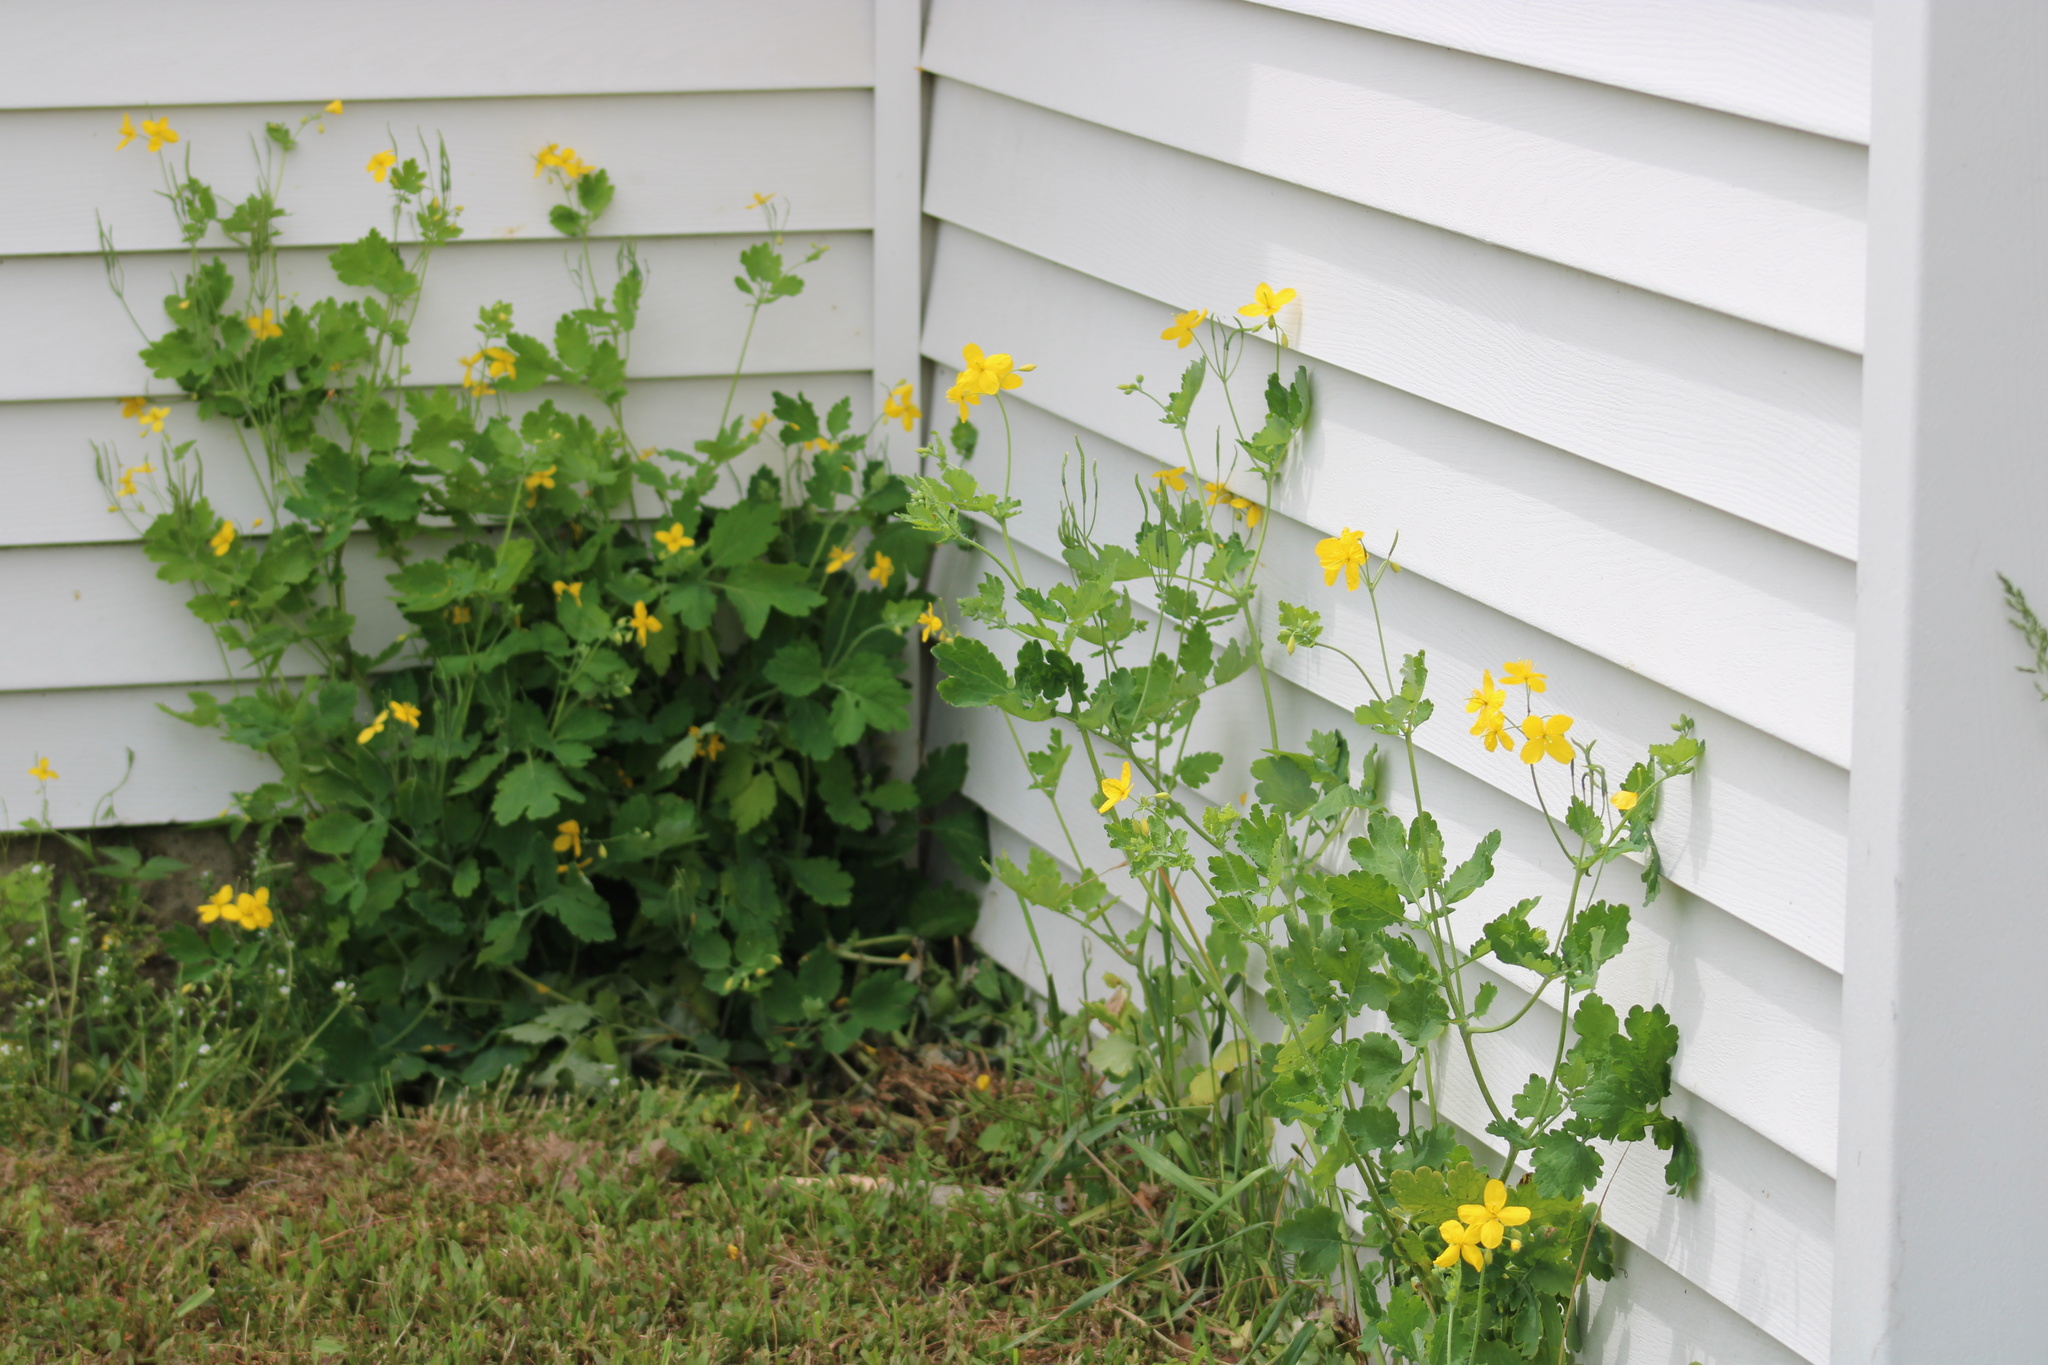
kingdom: Plantae
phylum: Tracheophyta
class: Magnoliopsida
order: Ranunculales
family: Papaveraceae
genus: Chelidonium
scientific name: Chelidonium majus
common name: Greater celandine
